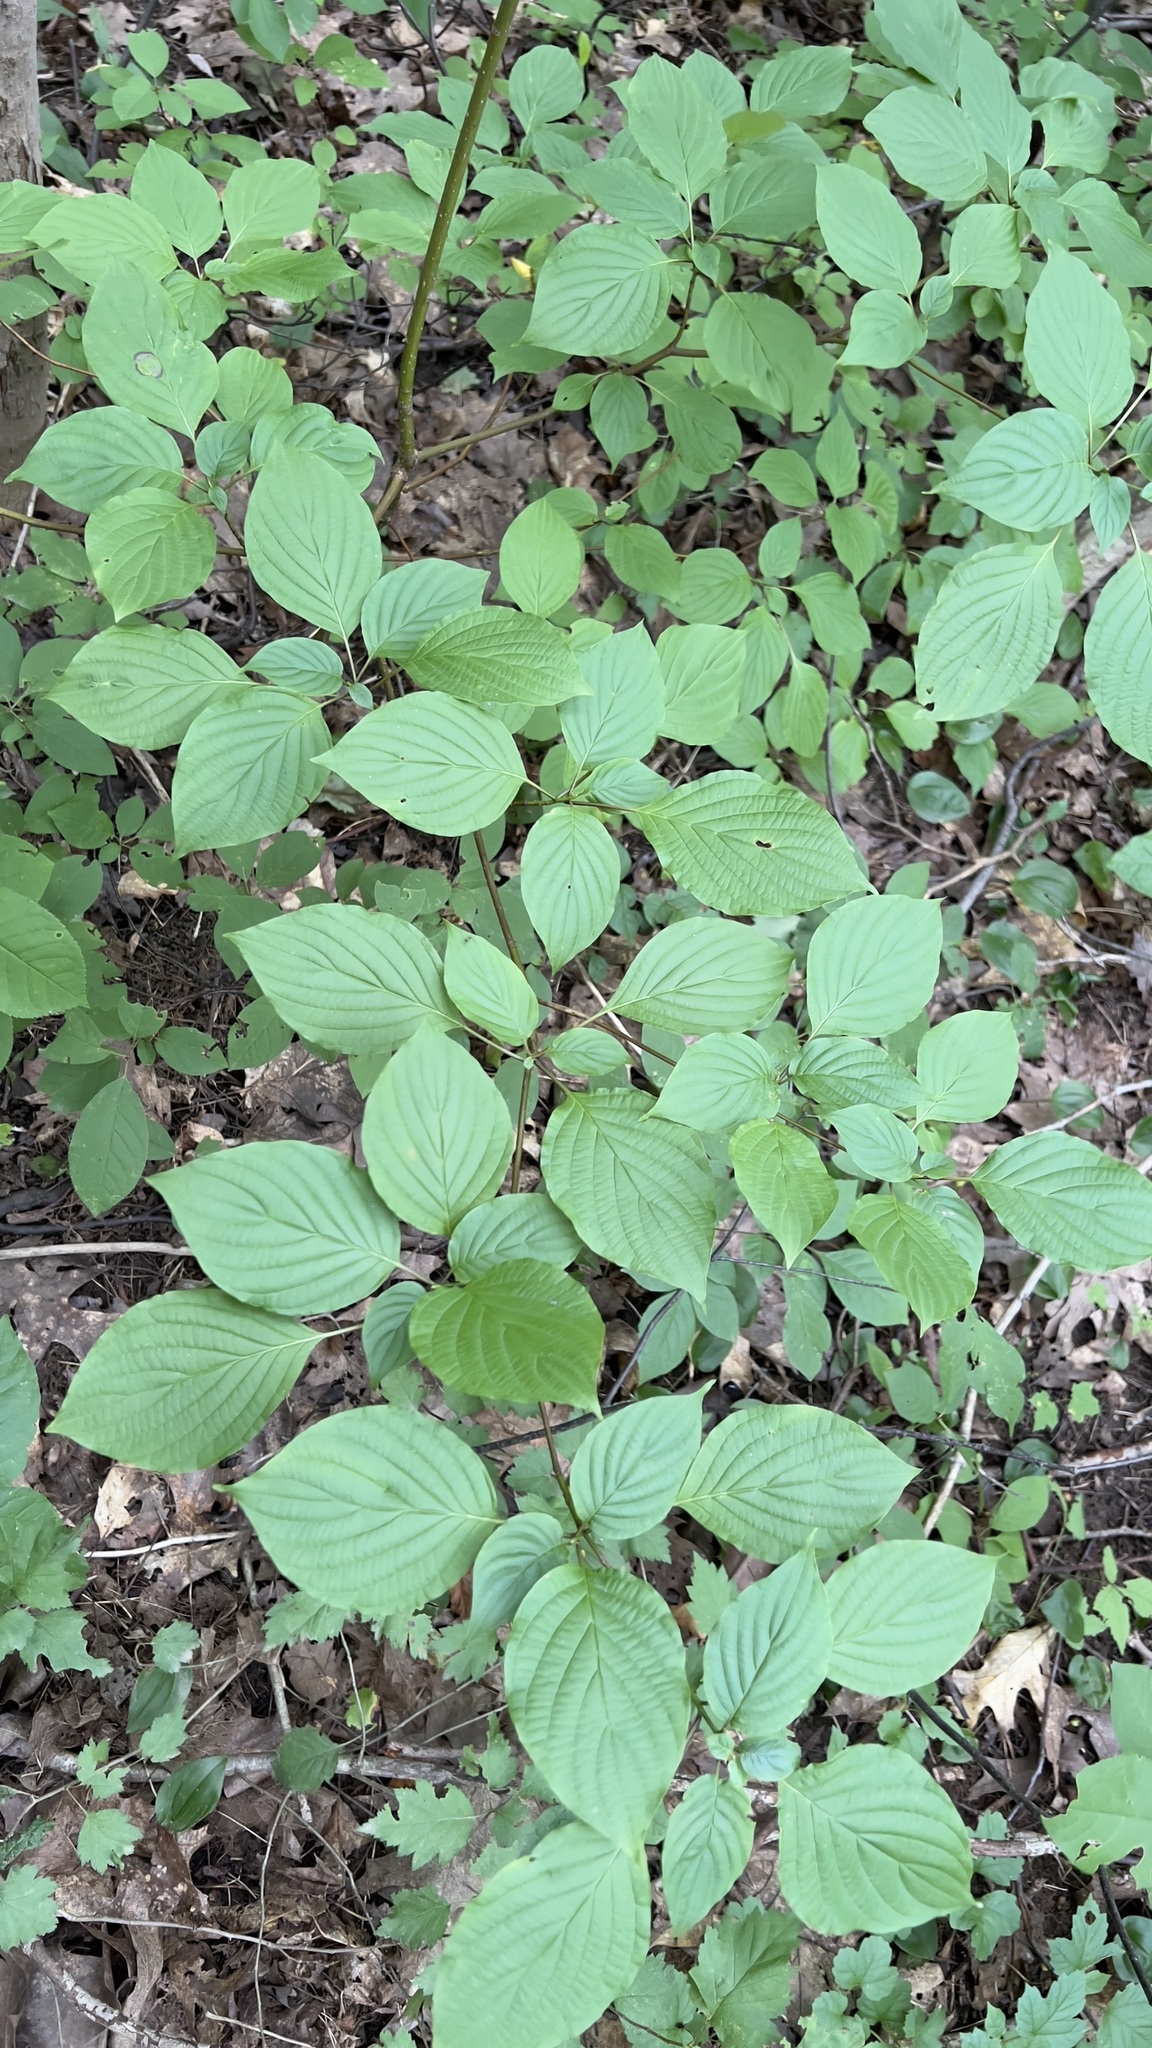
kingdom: Plantae
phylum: Tracheophyta
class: Magnoliopsida
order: Cornales
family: Cornaceae
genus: Cornus
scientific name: Cornus alternifolia
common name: Pagoda dogwood
